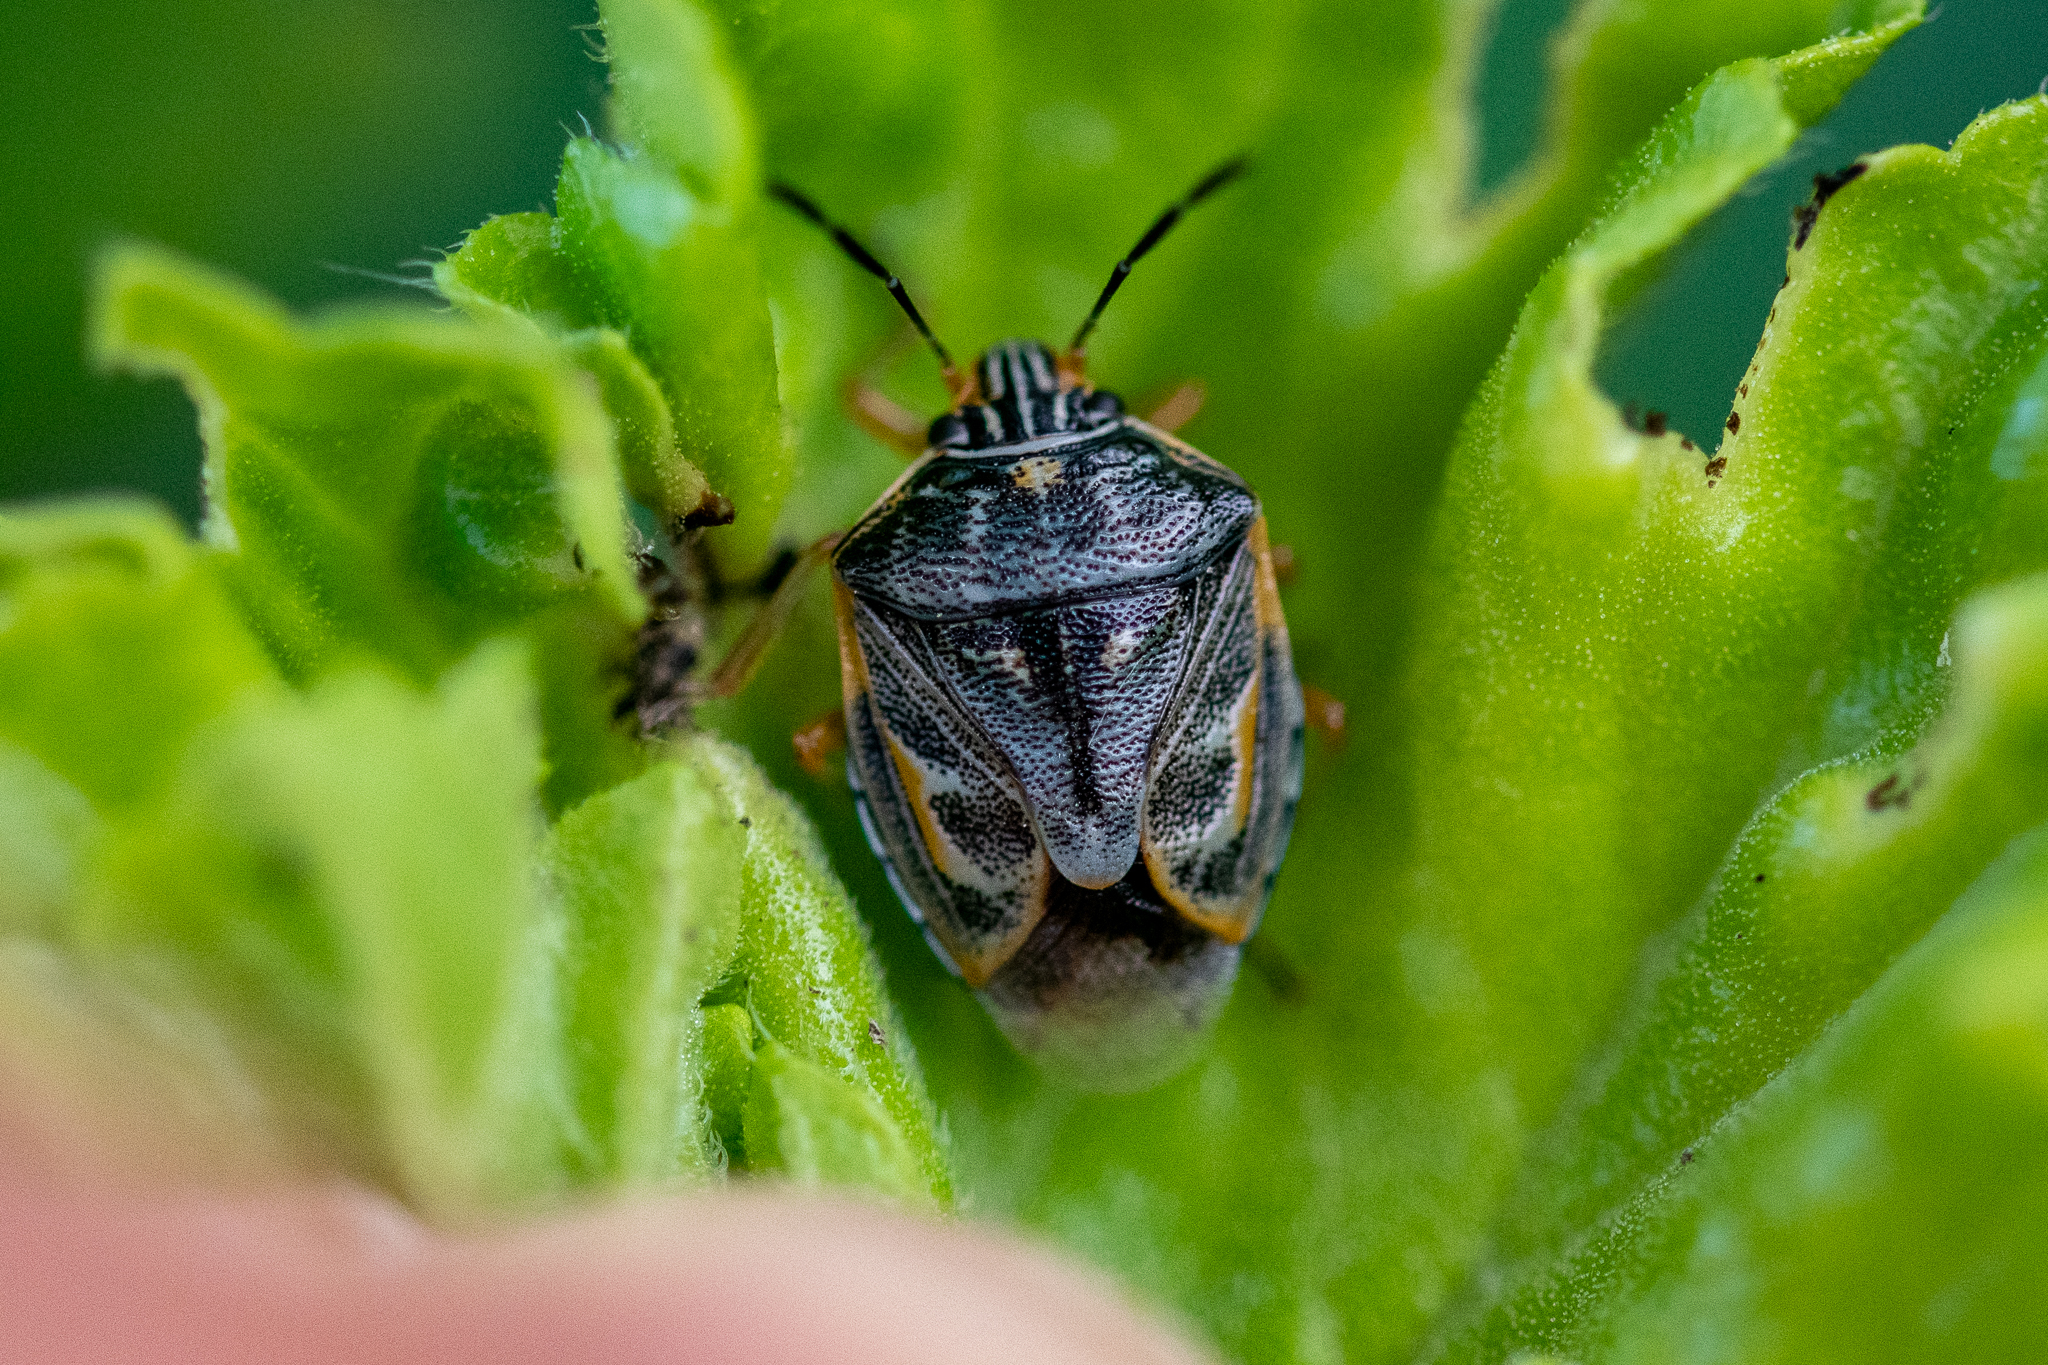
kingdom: Animalia
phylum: Arthropoda
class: Insecta
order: Hemiptera
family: Pentatomidae
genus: Antestiopsis
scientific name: Antestiopsis thunbergii
